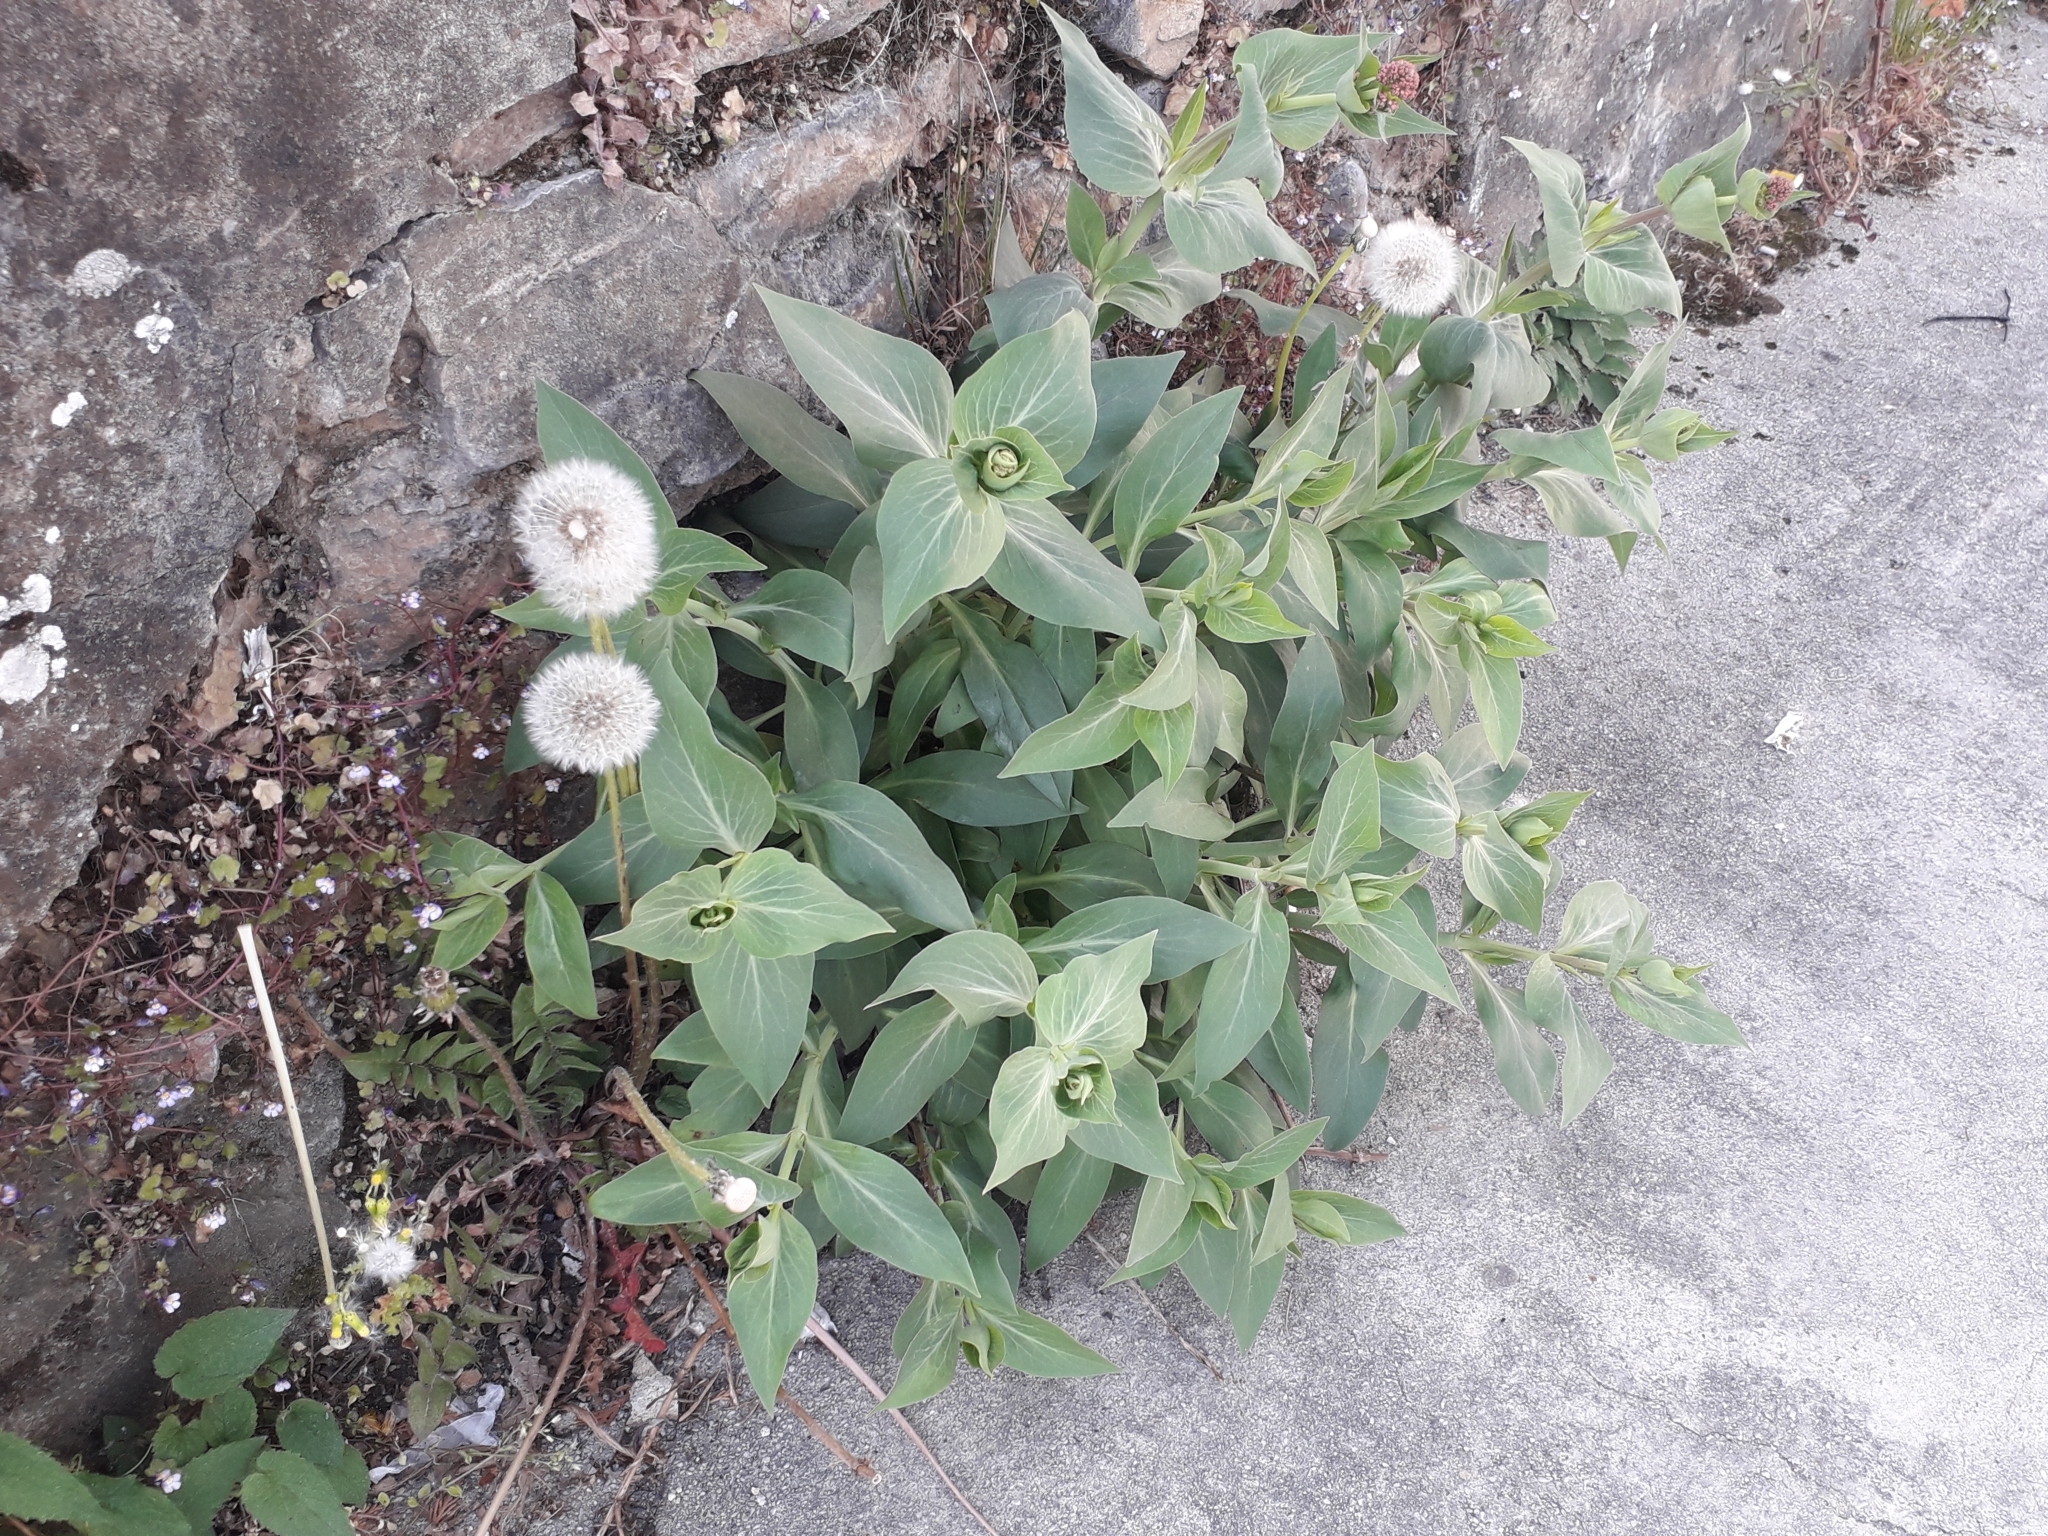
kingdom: Plantae
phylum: Tracheophyta
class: Magnoliopsida
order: Dipsacales
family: Caprifoliaceae
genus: Centranthus
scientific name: Centranthus ruber
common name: Red valerian
